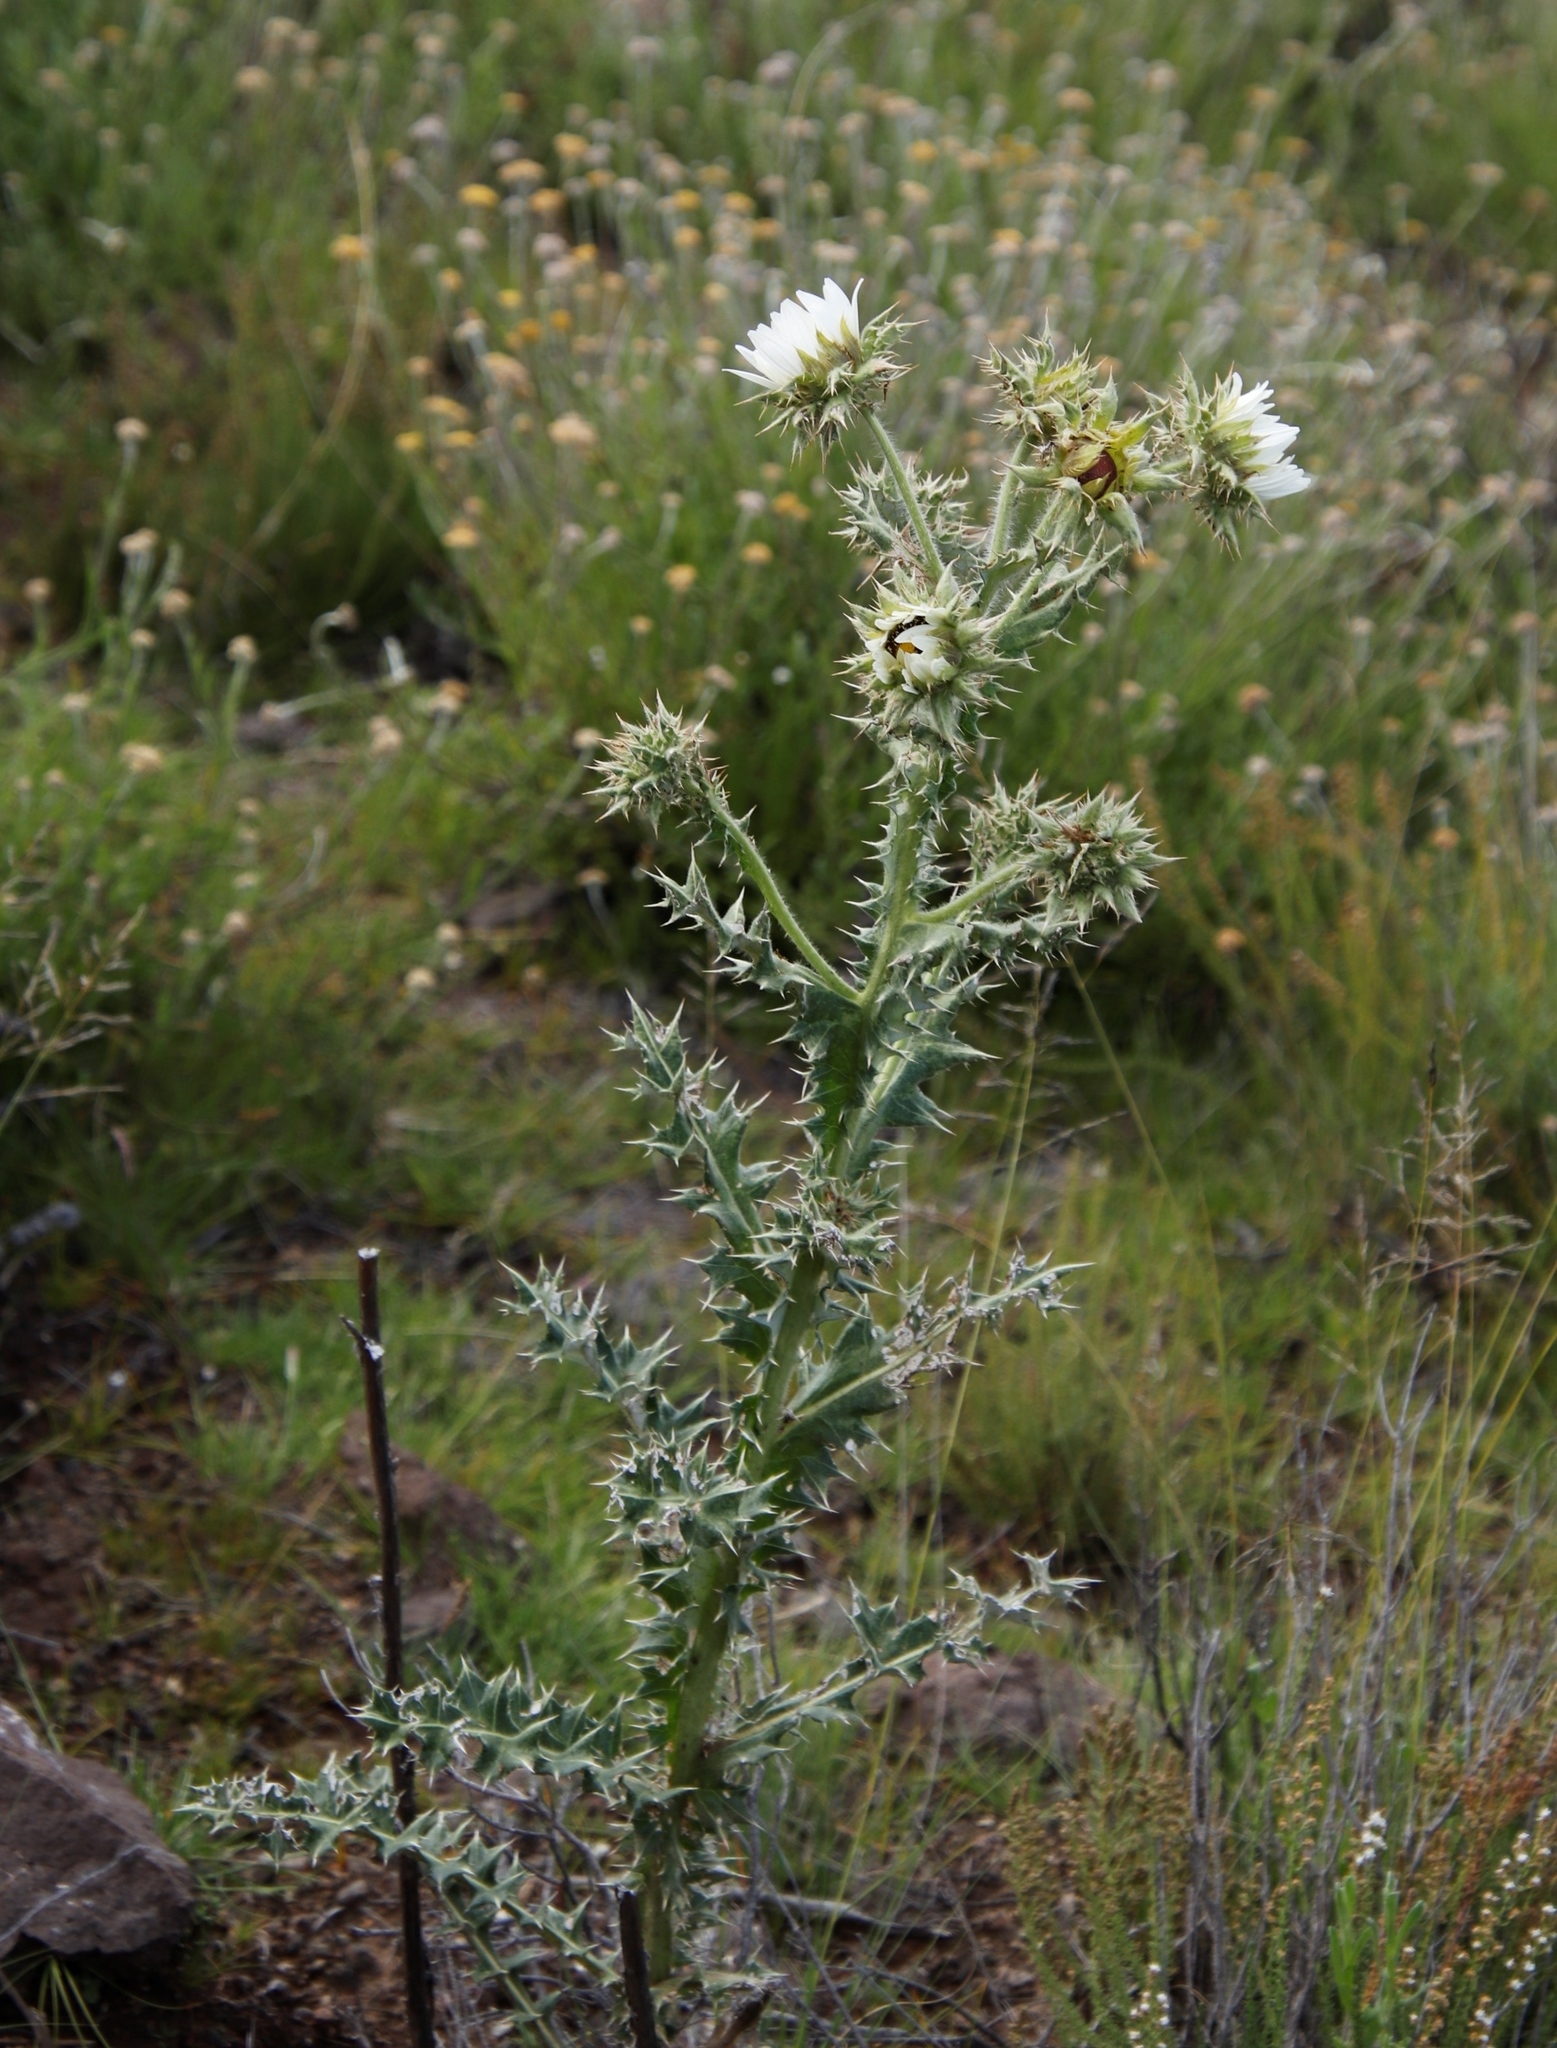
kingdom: Plantae
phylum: Tracheophyta
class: Magnoliopsida
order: Asterales
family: Asteraceae
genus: Berkheya
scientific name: Berkheya cirsiifolia
